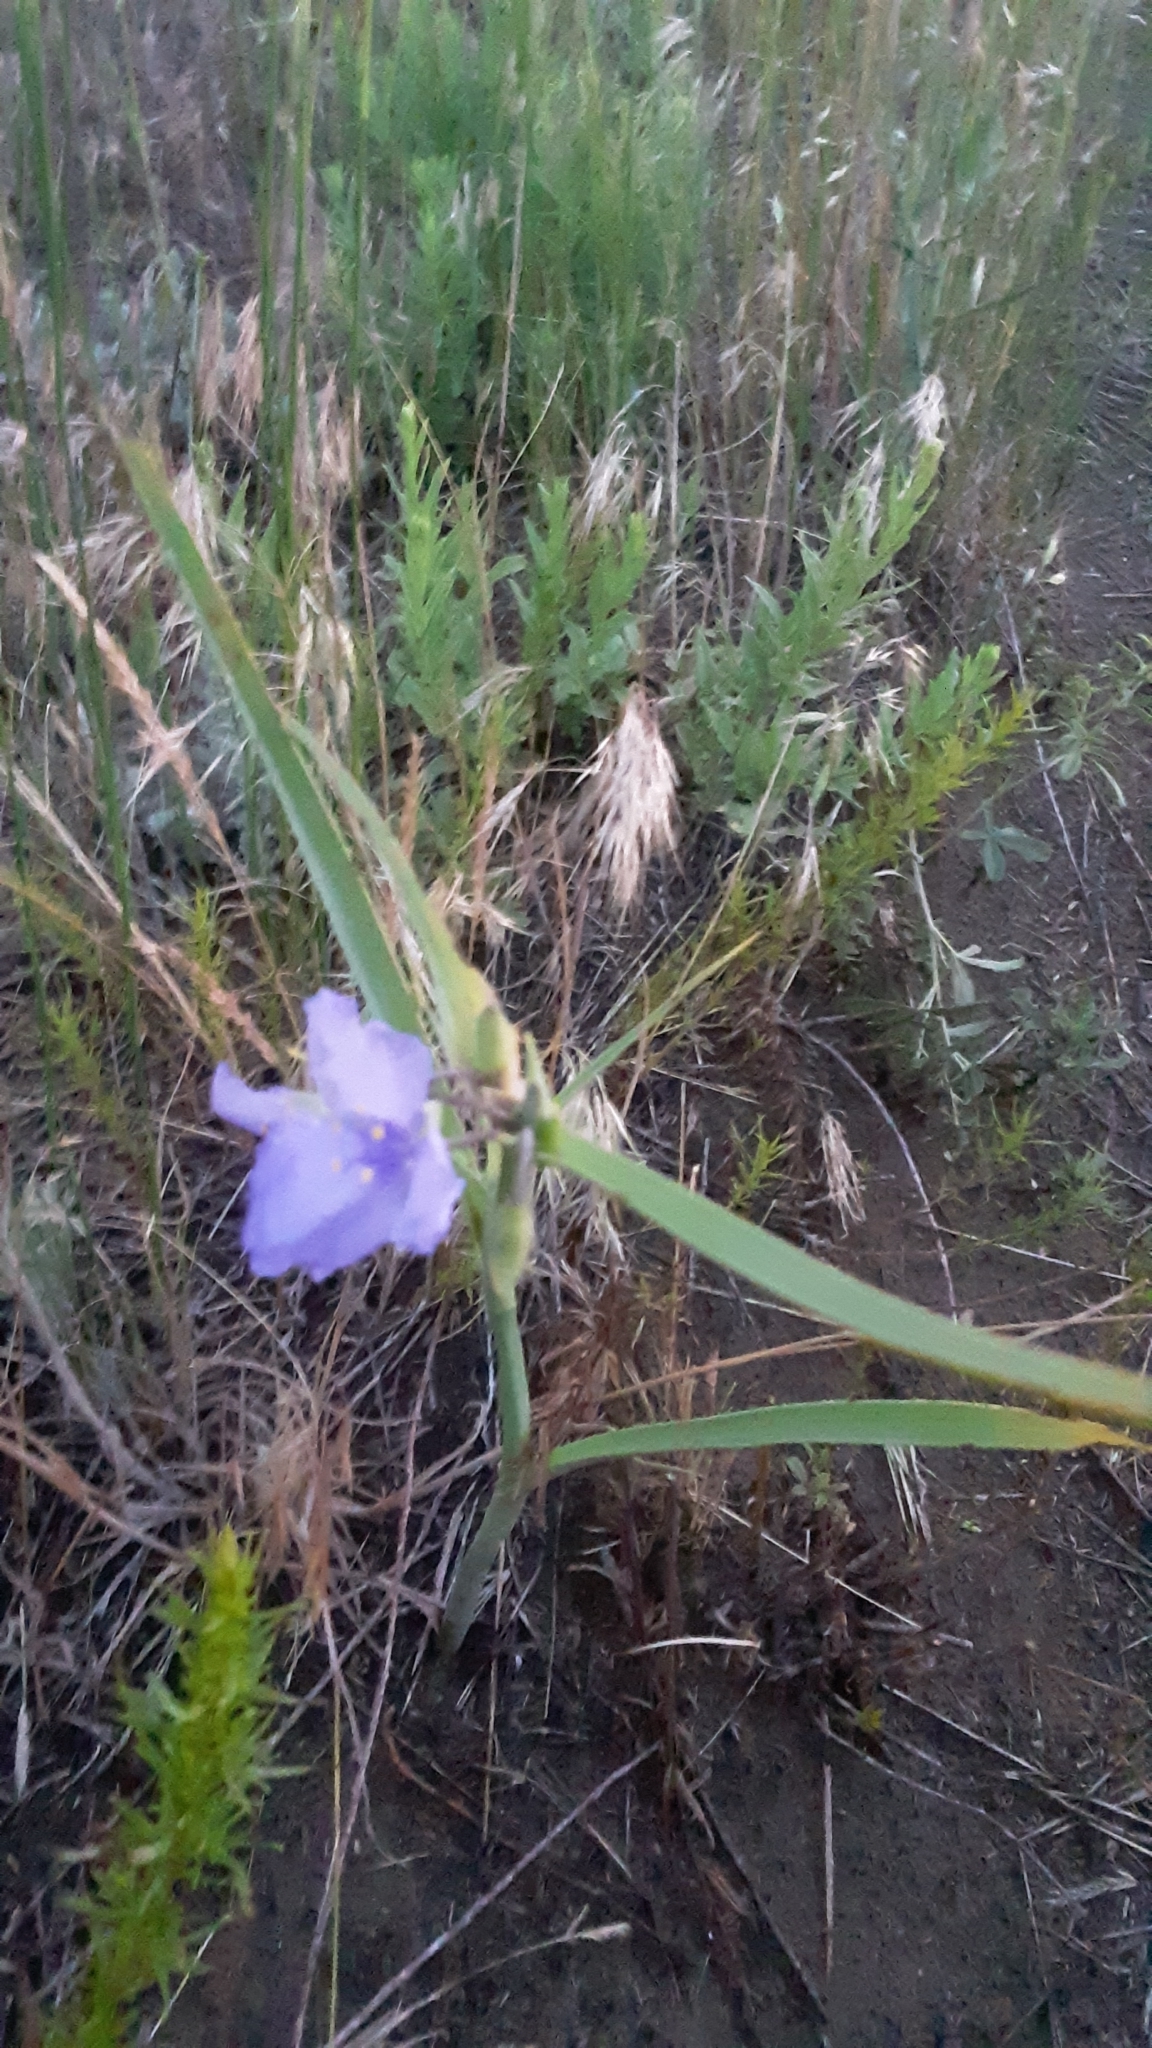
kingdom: Plantae
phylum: Tracheophyta
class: Liliopsida
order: Commelinales
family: Commelinaceae
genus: Tradescantia
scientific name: Tradescantia occidentalis
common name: Prairie spiderwort
